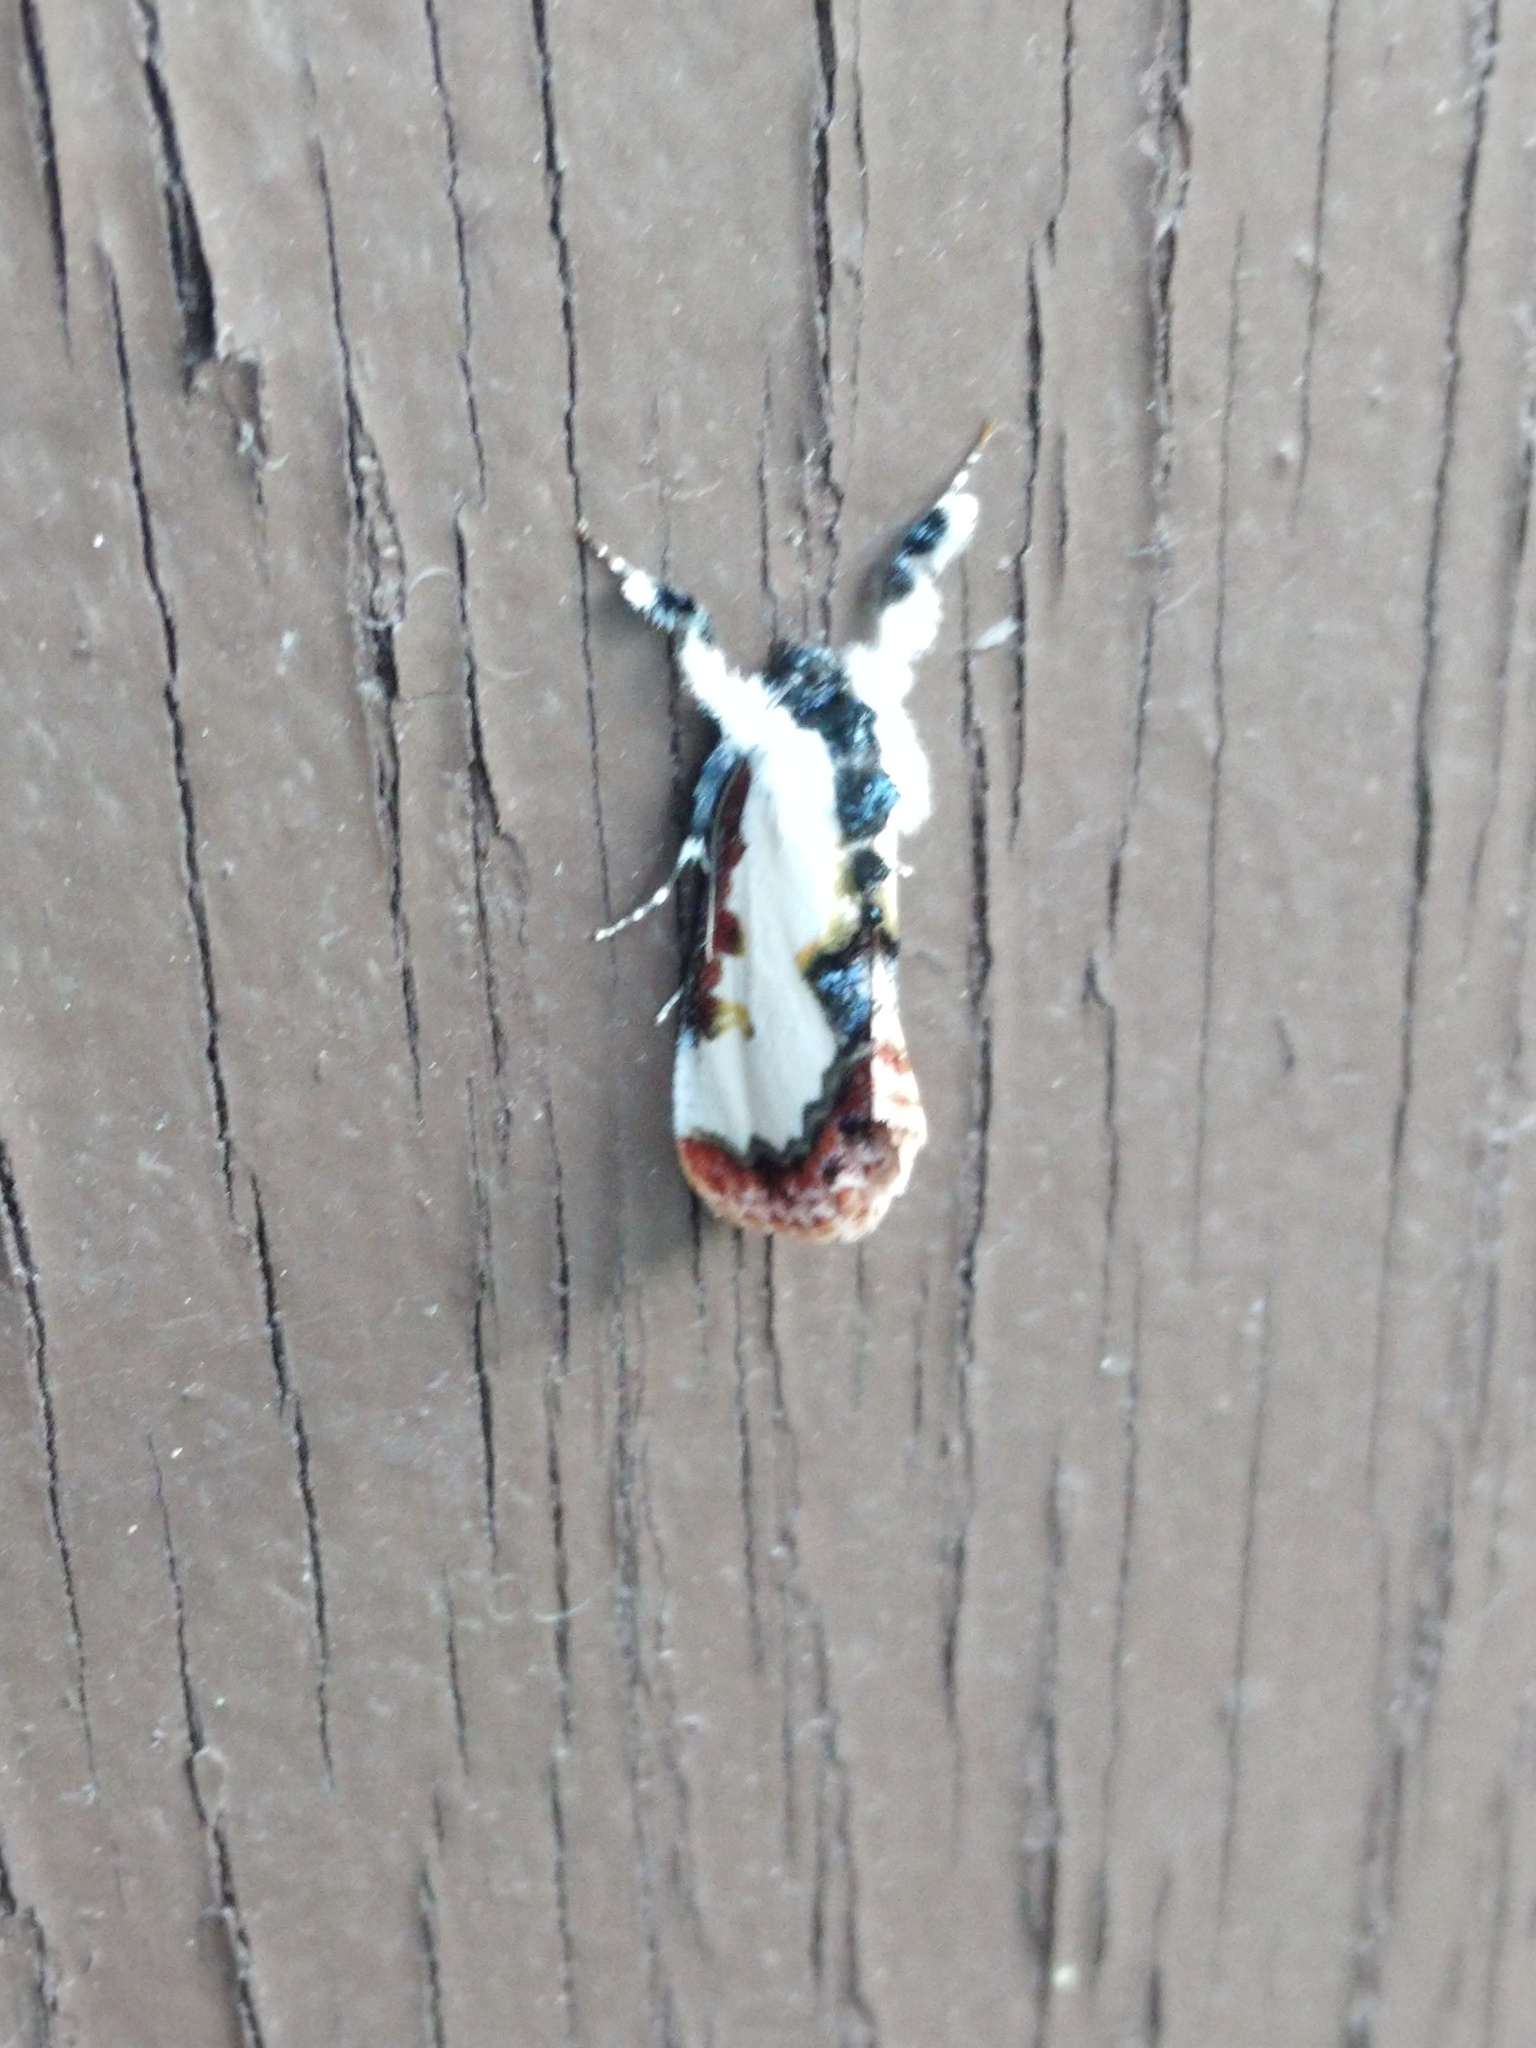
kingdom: Animalia
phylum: Arthropoda
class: Insecta
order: Lepidoptera
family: Noctuidae
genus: Eudryas
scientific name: Eudryas unio
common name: Pearly wood-nymph
